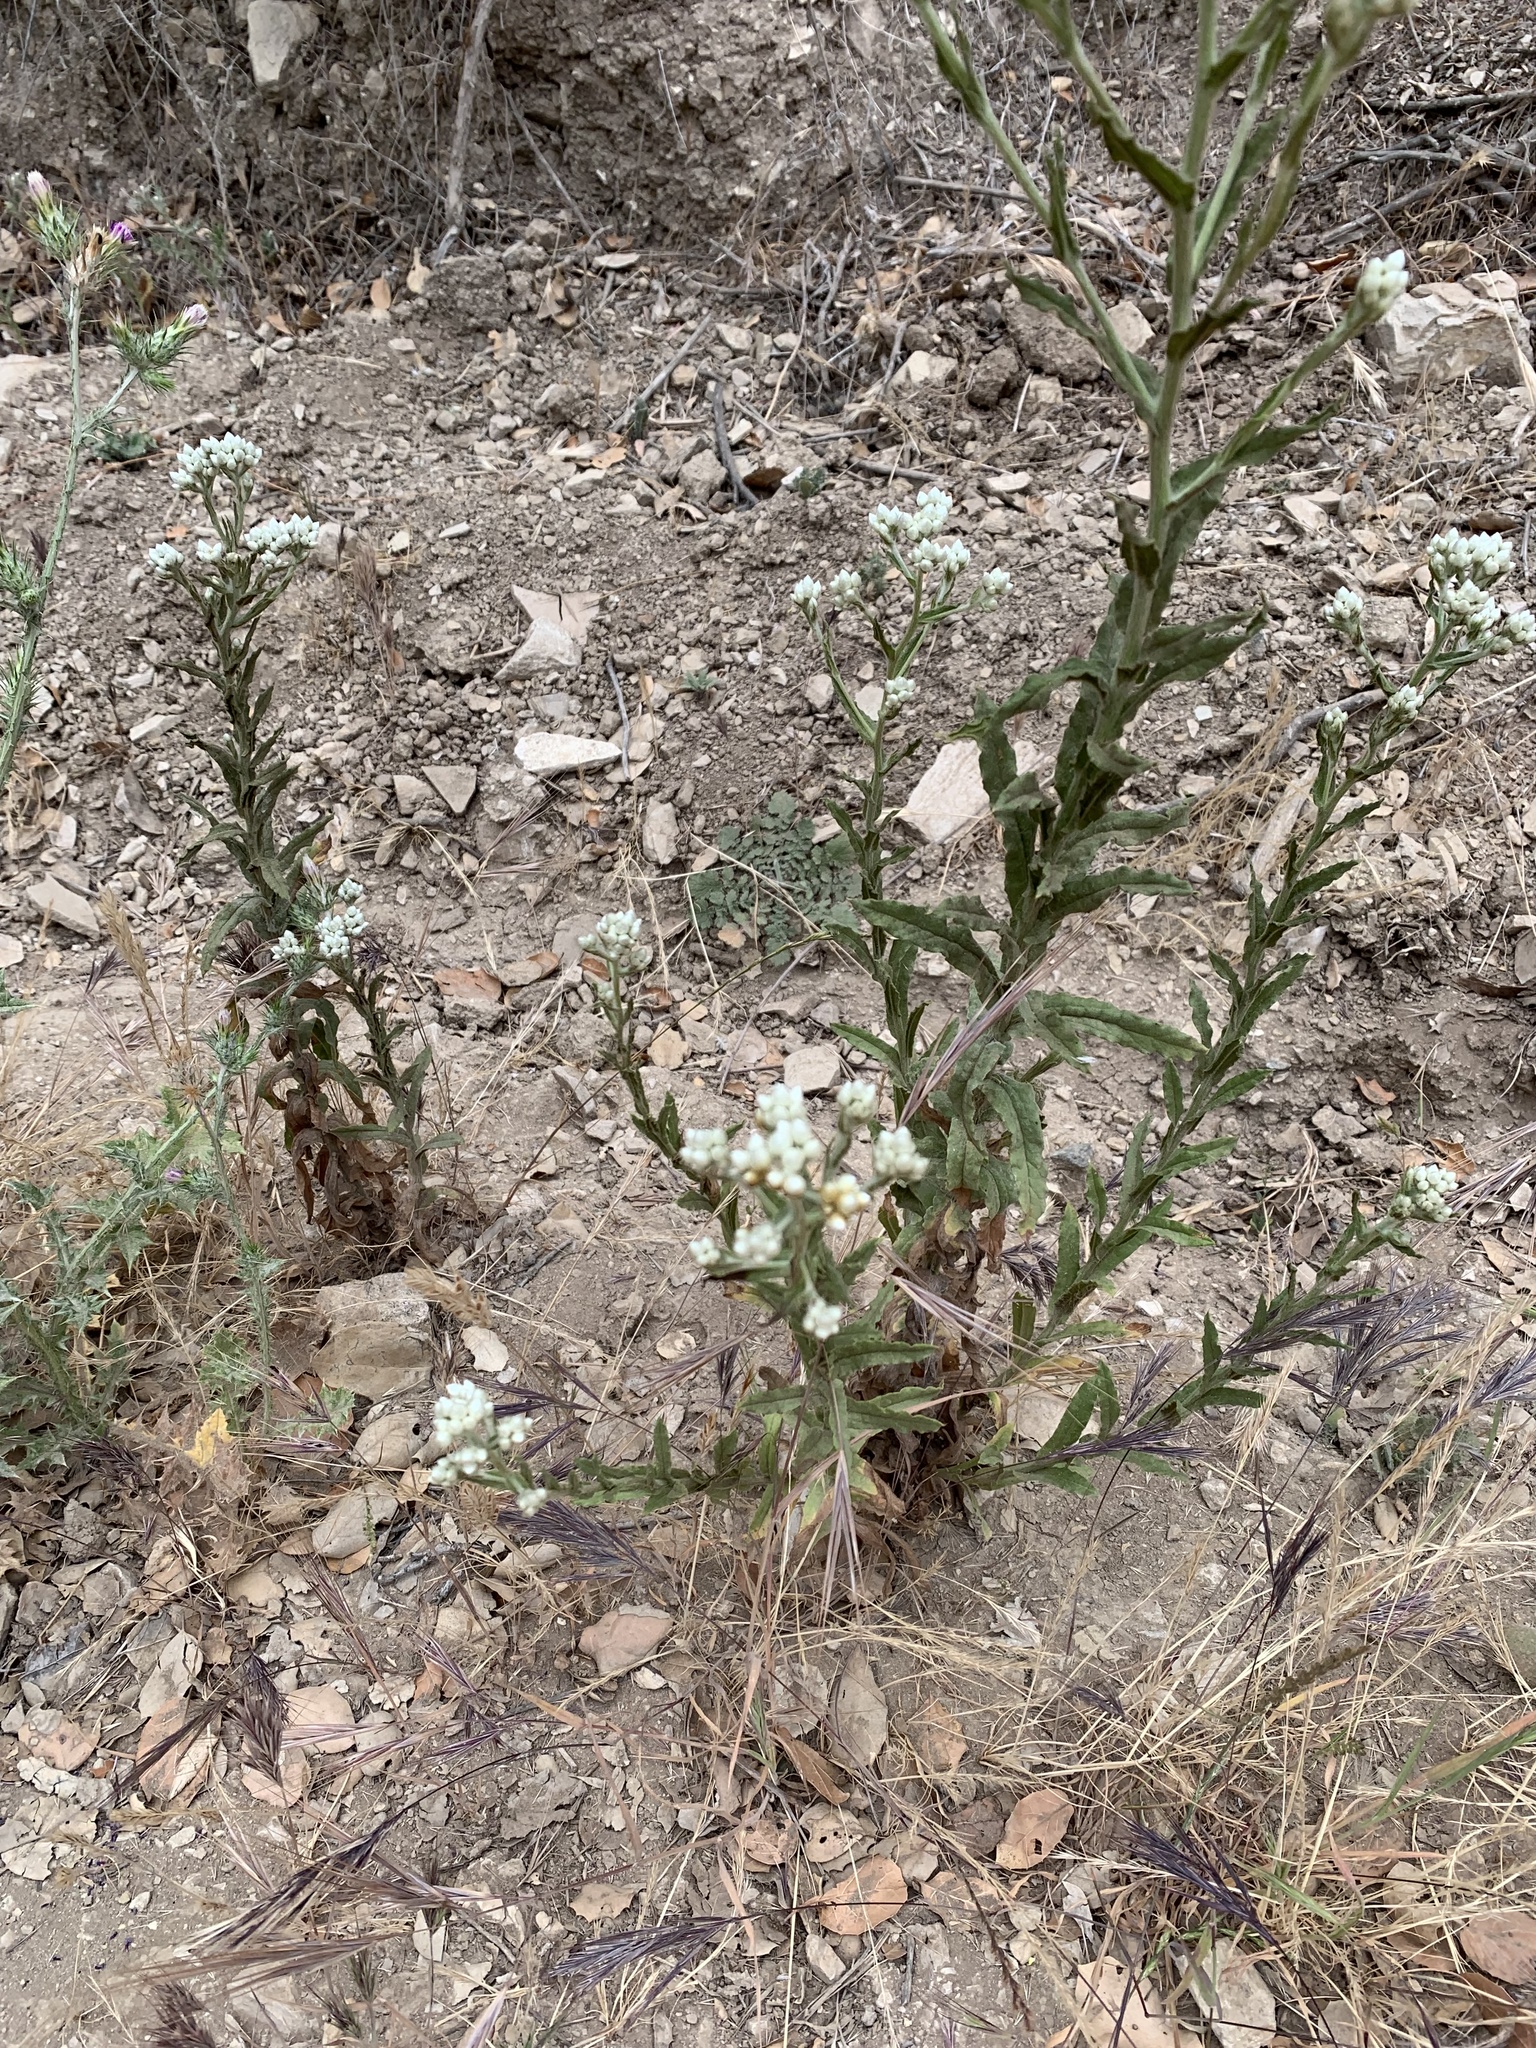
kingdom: Plantae
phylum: Tracheophyta
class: Magnoliopsida
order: Asterales
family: Asteraceae
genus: Pseudognaphalium
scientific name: Pseudognaphalium californicum
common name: California rabbit-tobacco
